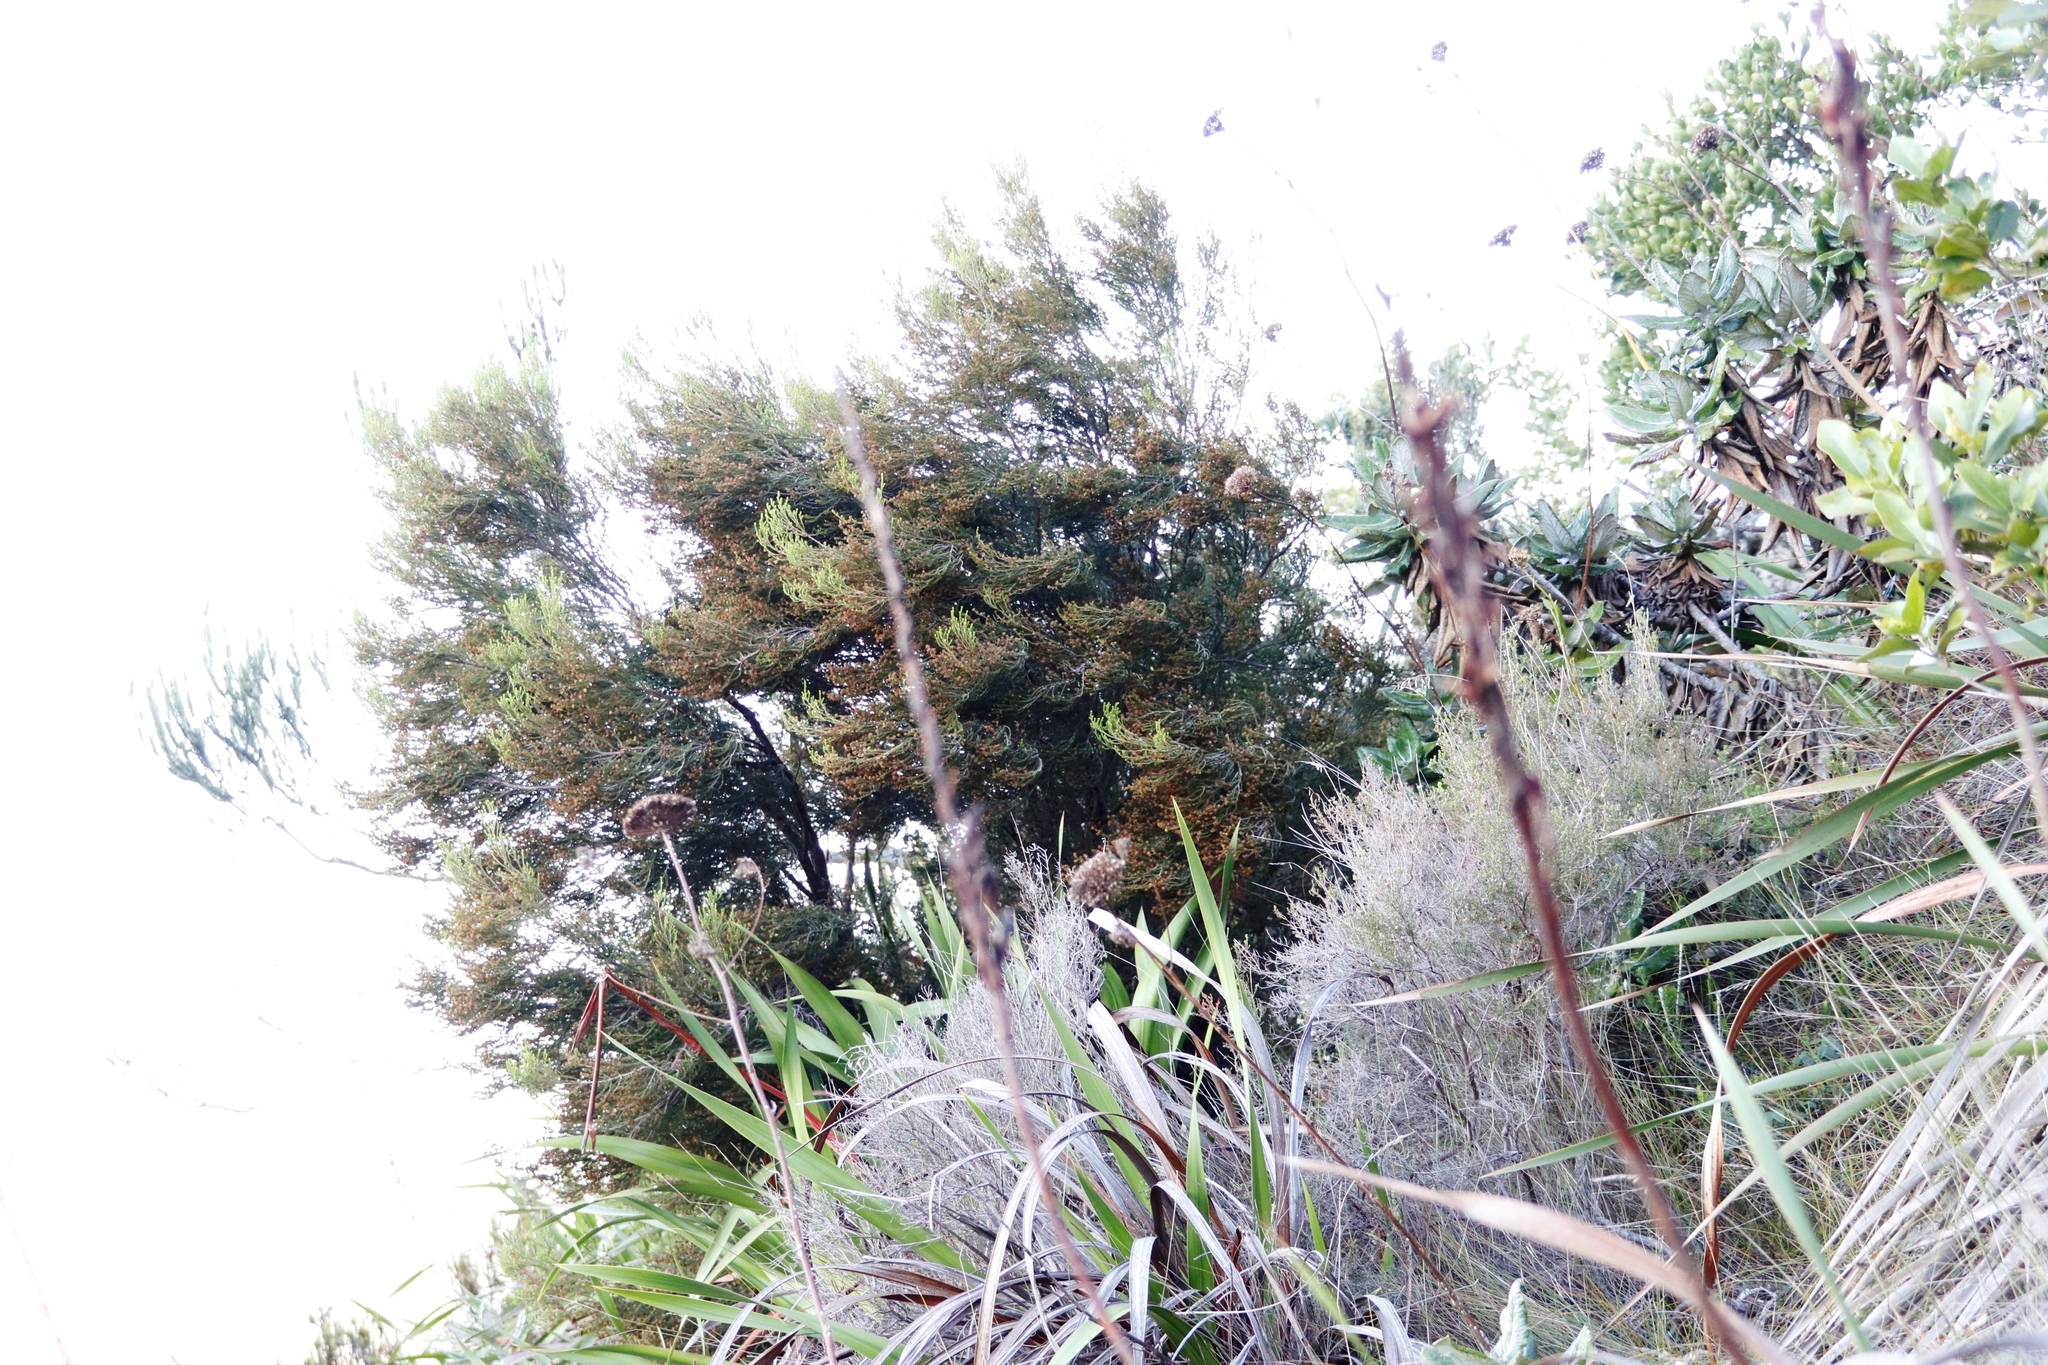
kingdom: Plantae
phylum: Tracheophyta
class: Magnoliopsida
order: Ericales
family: Ericaceae
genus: Erica
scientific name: Erica tristis
